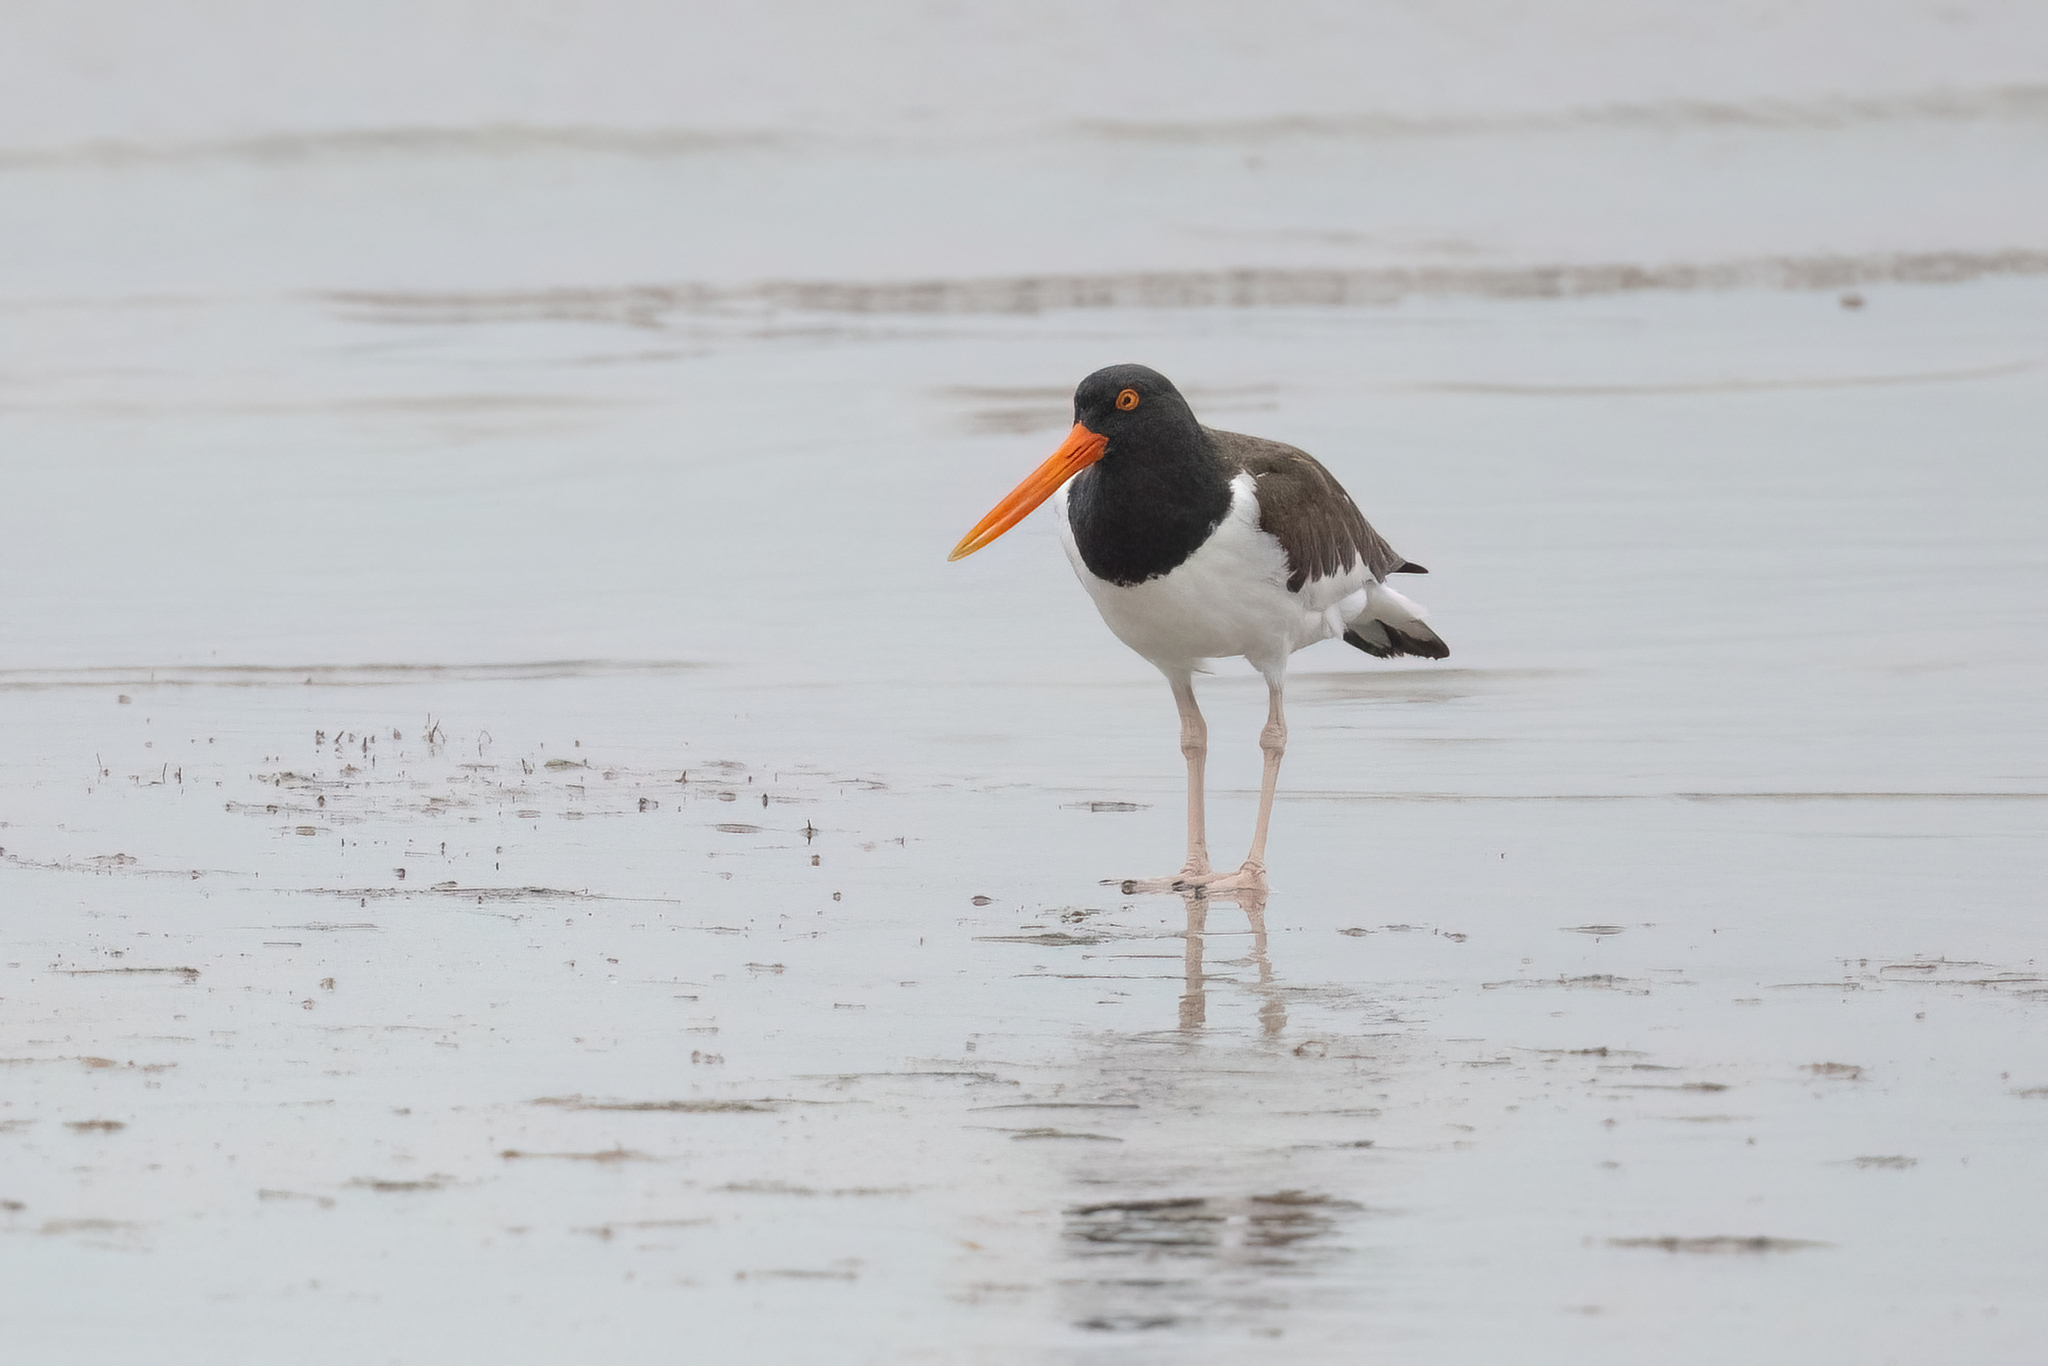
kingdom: Animalia
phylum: Chordata
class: Aves
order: Charadriiformes
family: Haematopodidae
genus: Haematopus
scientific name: Haematopus palliatus
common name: American oystercatcher
